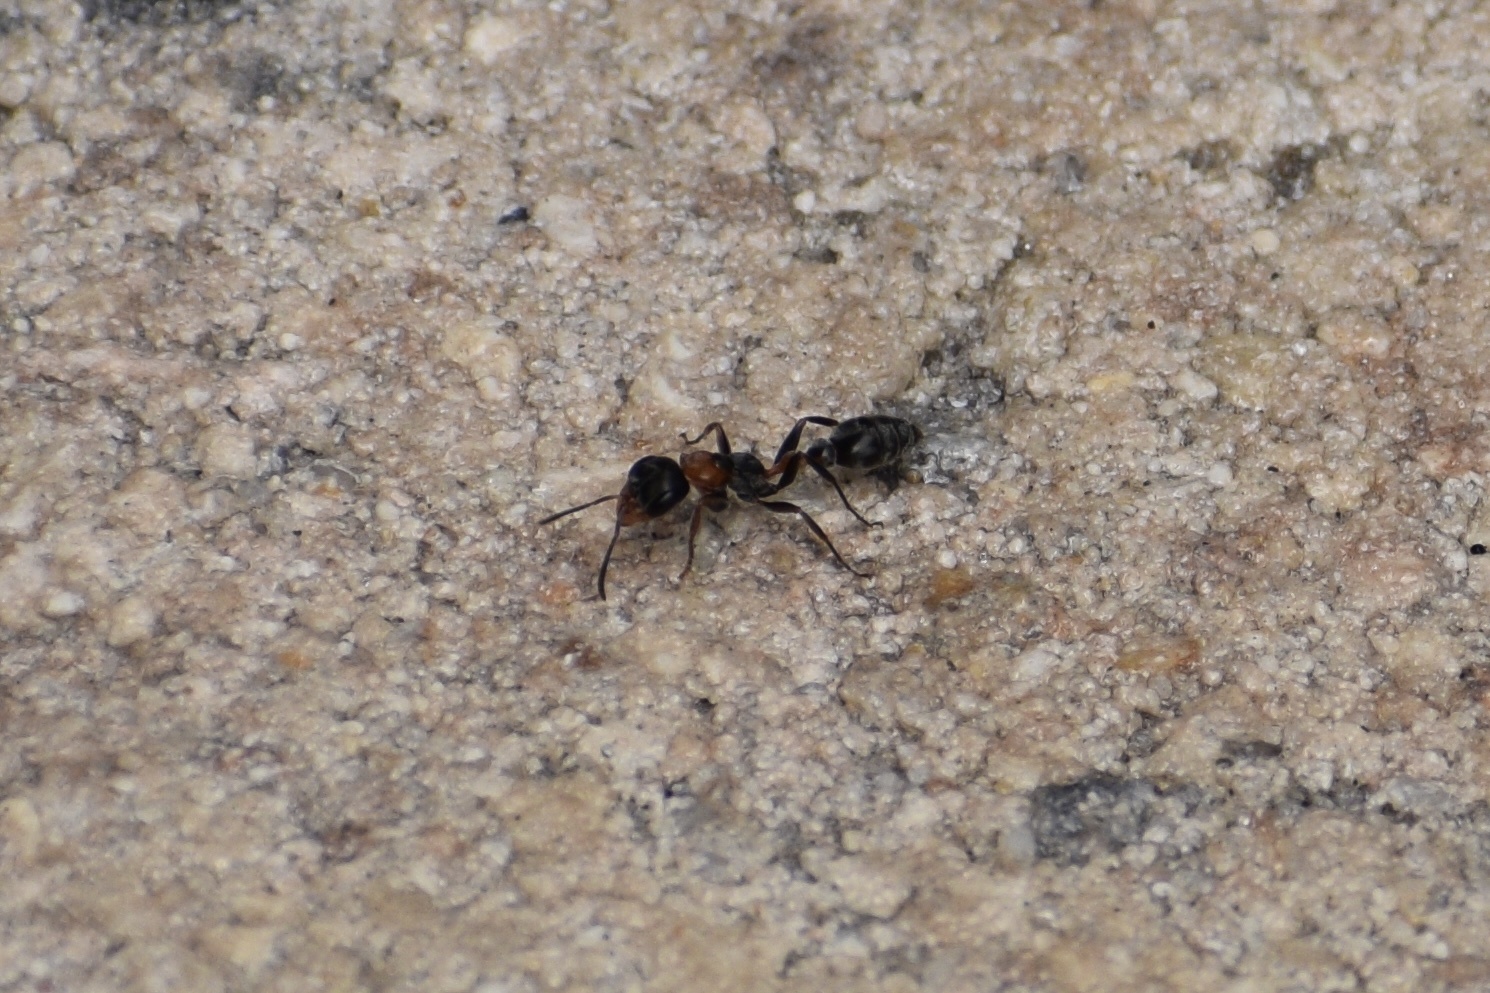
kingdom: Animalia
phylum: Arthropoda
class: Insecta
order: Hymenoptera
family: Formicidae
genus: Pseudomyrmex
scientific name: Pseudomyrmex gracilis
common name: Graceful twig ant
